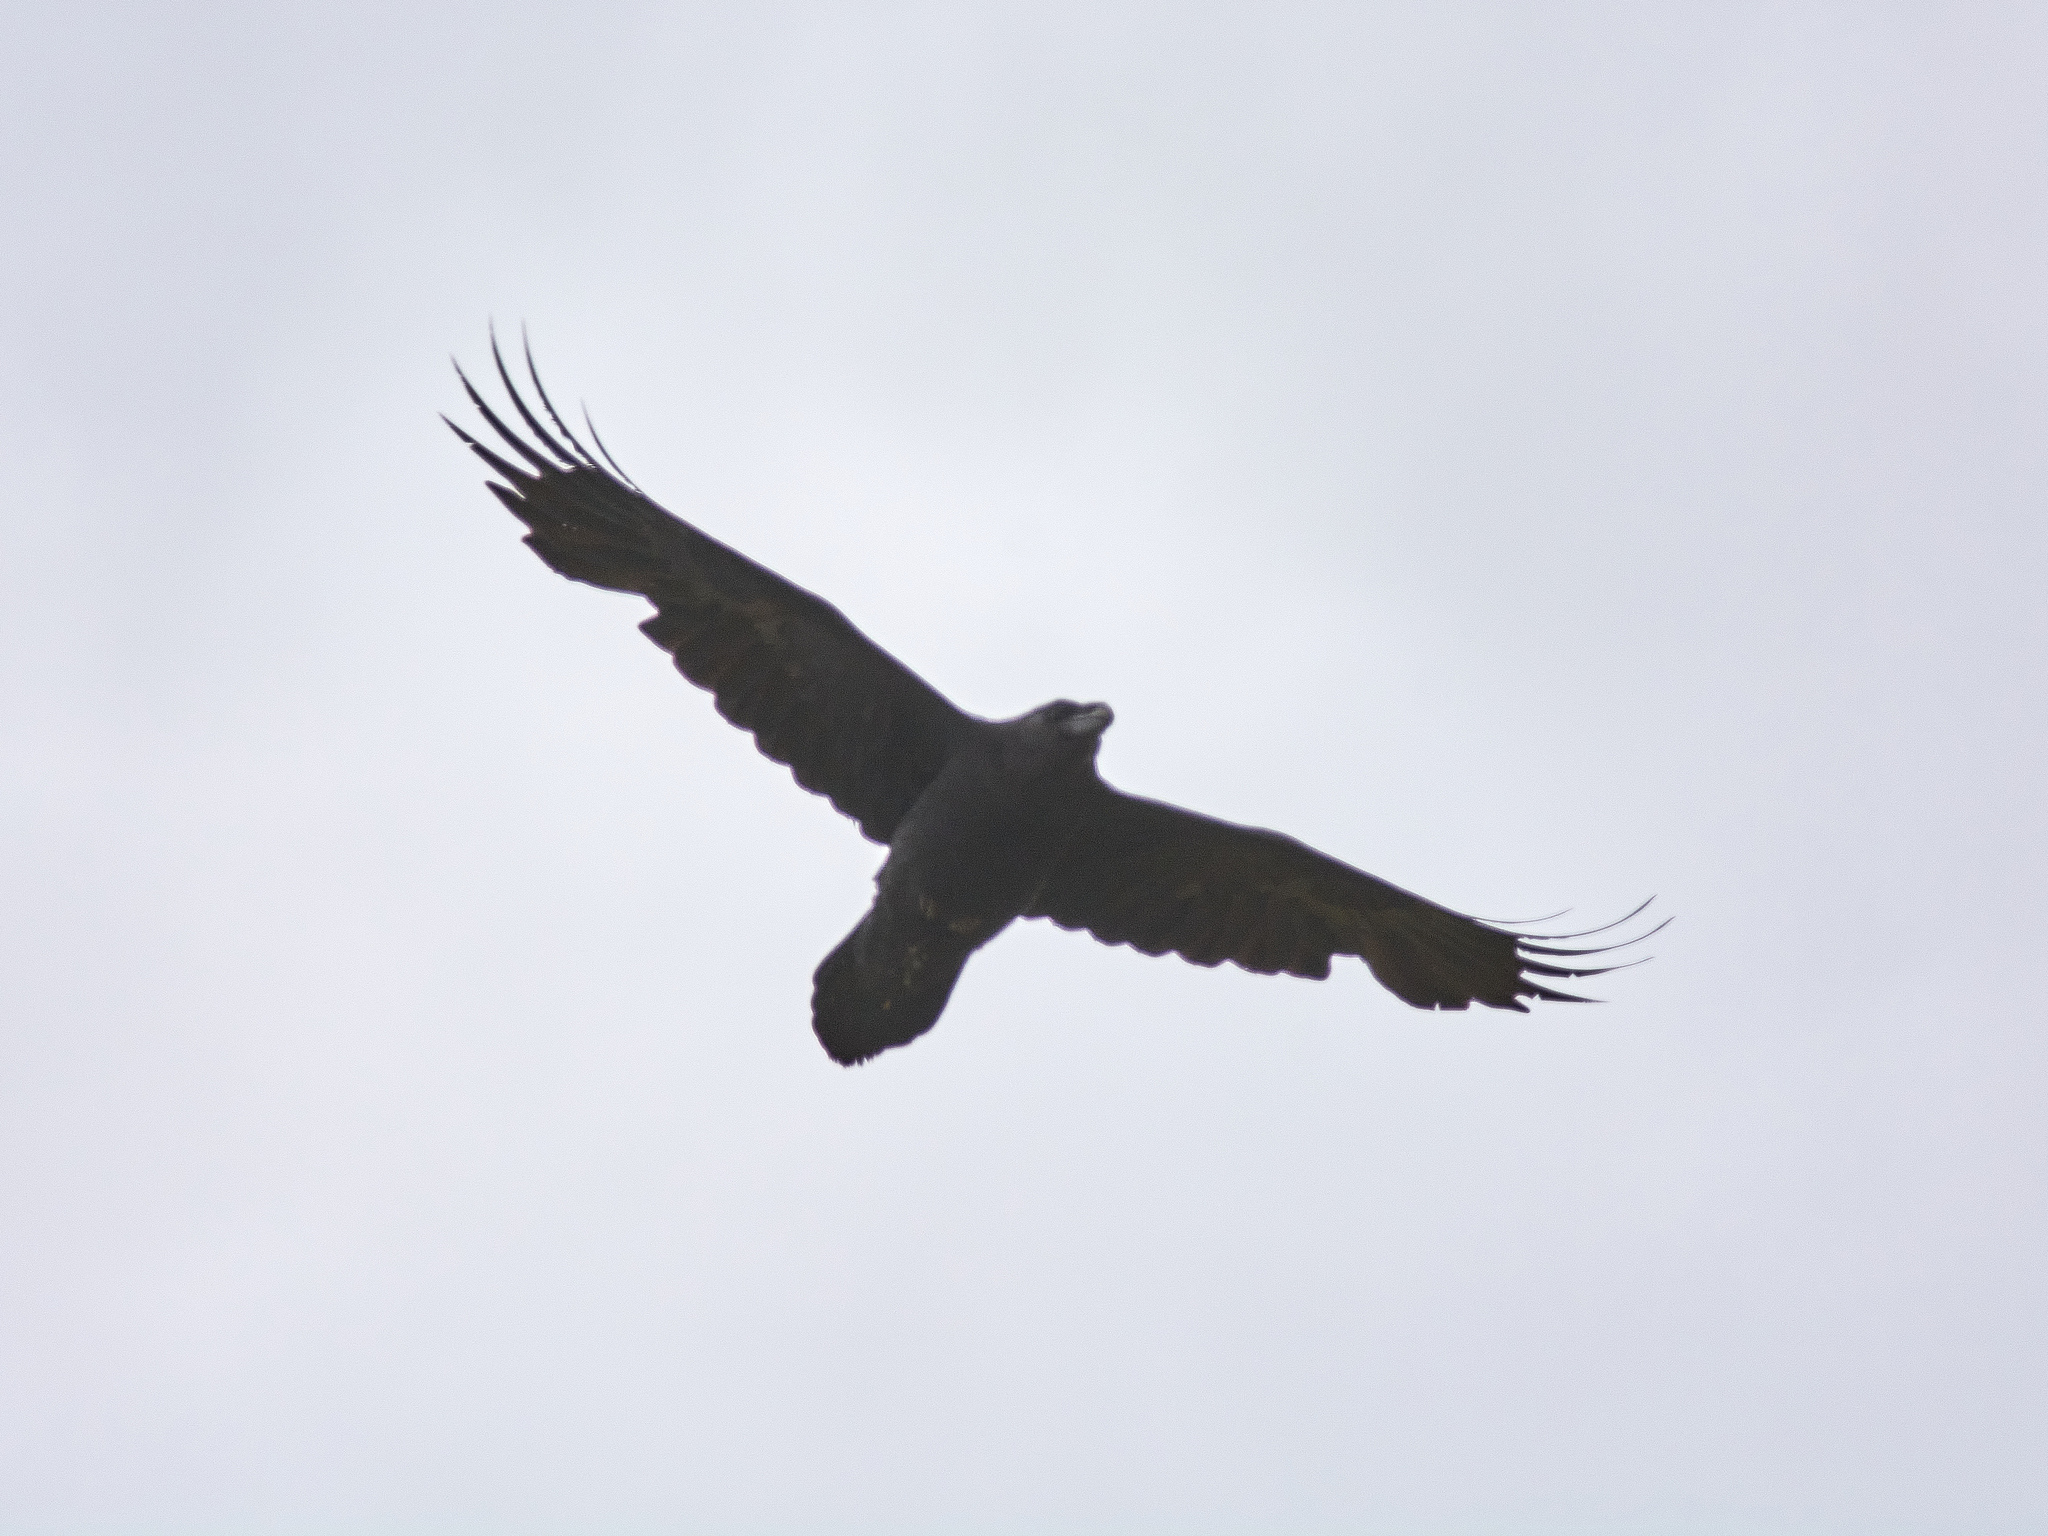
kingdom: Animalia
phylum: Chordata
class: Aves
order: Passeriformes
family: Corvidae
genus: Corvus
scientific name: Corvus corax
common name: Common raven
